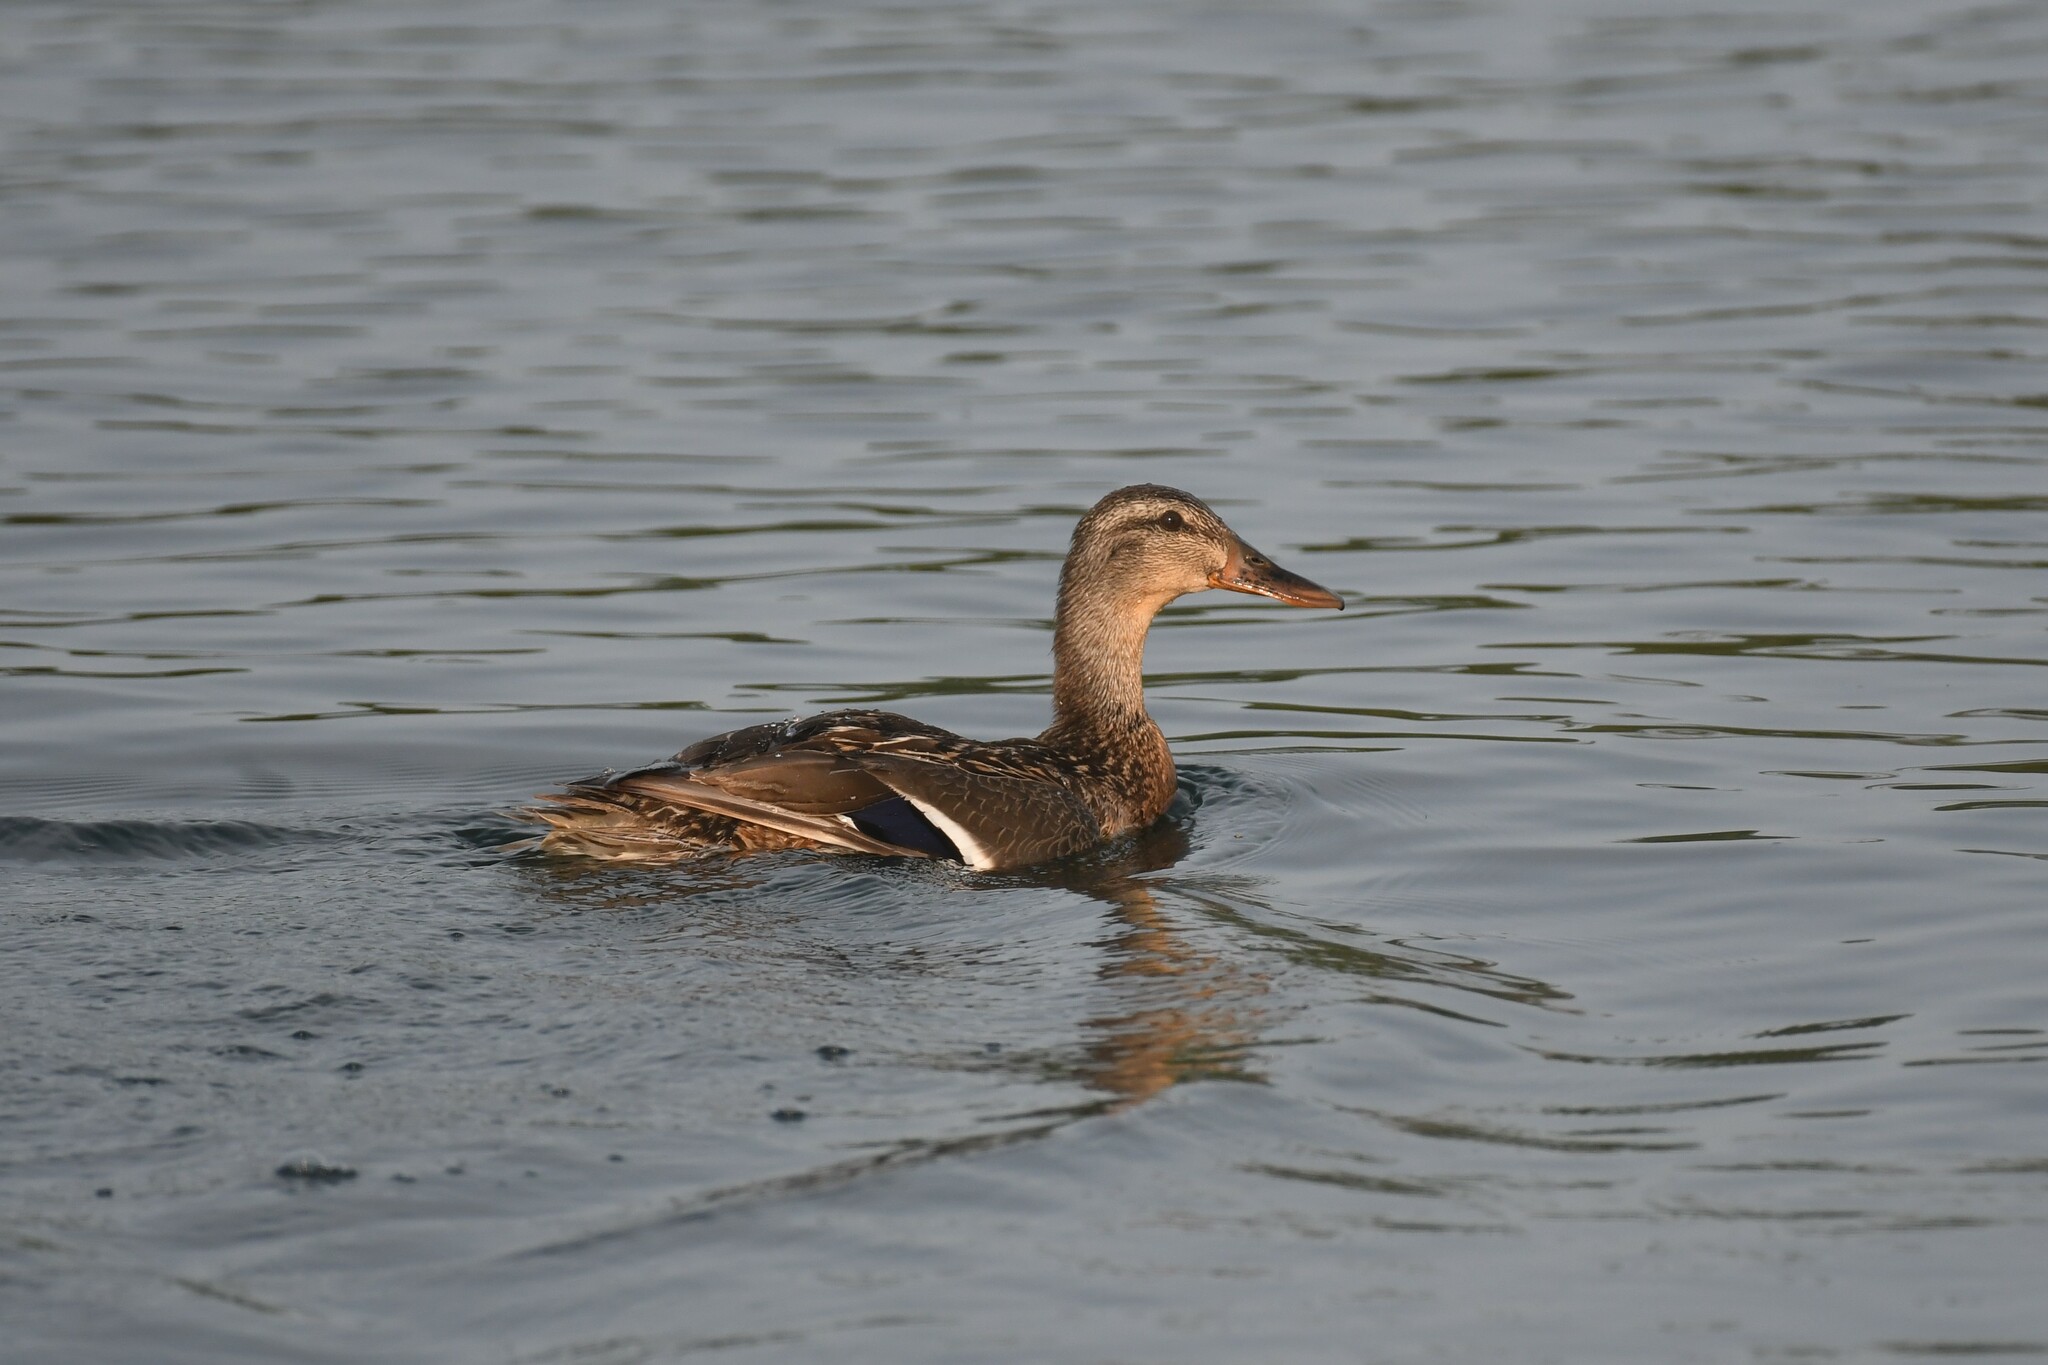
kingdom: Animalia
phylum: Chordata
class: Aves
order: Anseriformes
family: Anatidae
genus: Anas
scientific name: Anas platyrhynchos
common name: Mallard
